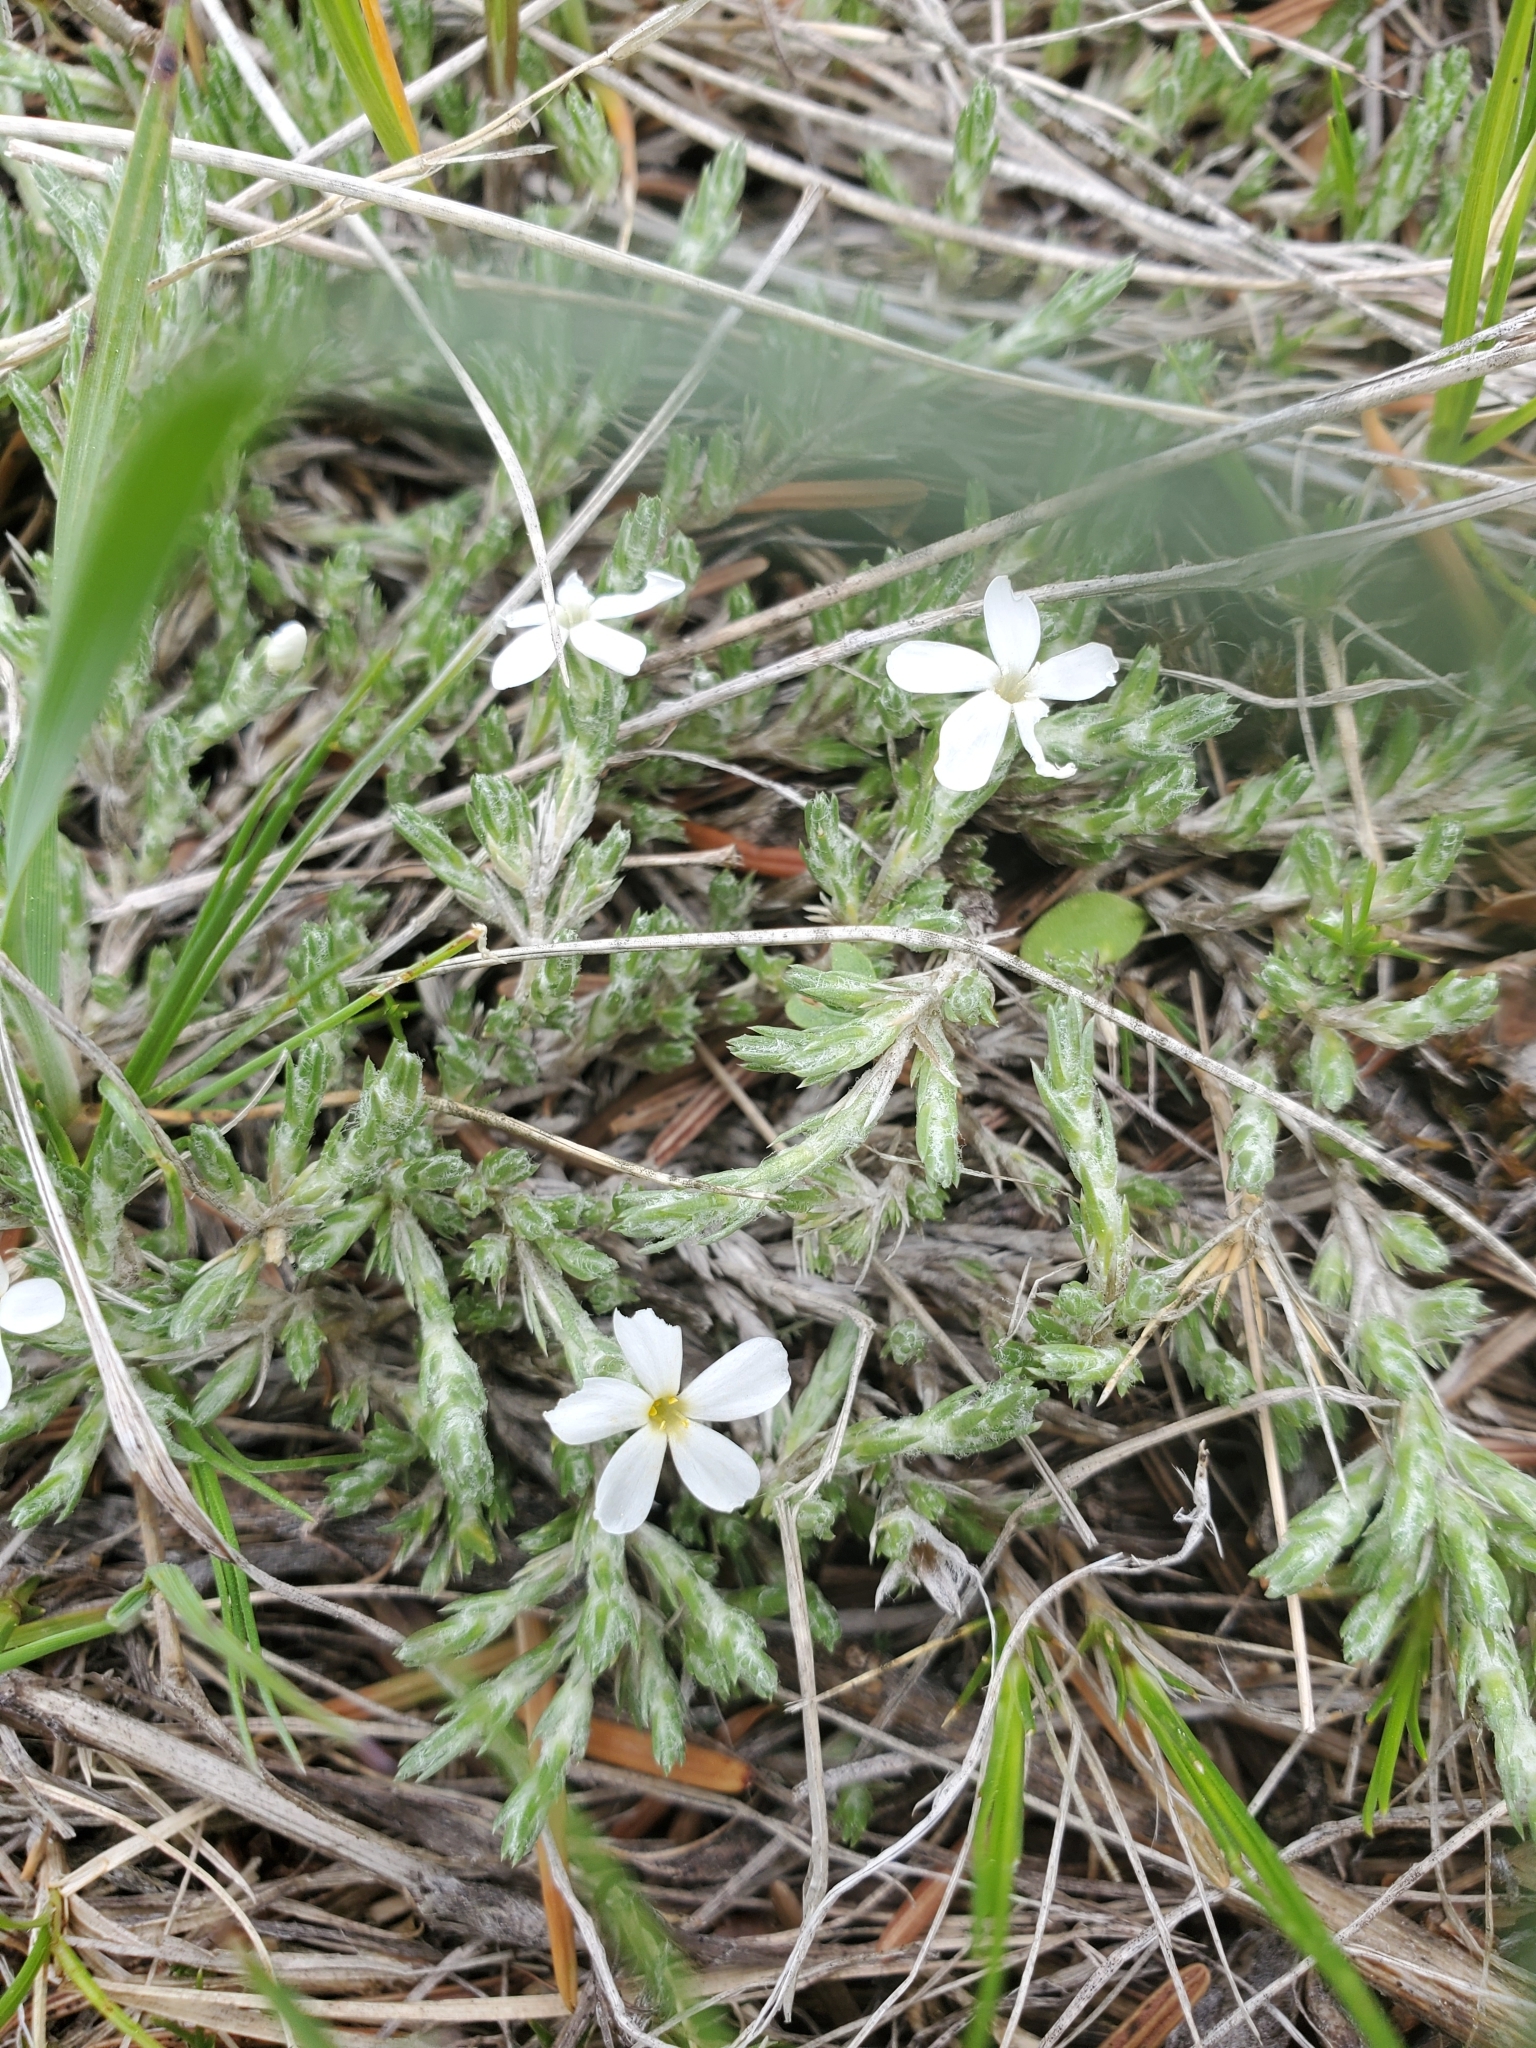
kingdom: Plantae
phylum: Tracheophyta
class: Magnoliopsida
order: Ericales
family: Polemoniaceae
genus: Phlox
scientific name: Phlox hoodii
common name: Moss phlox
